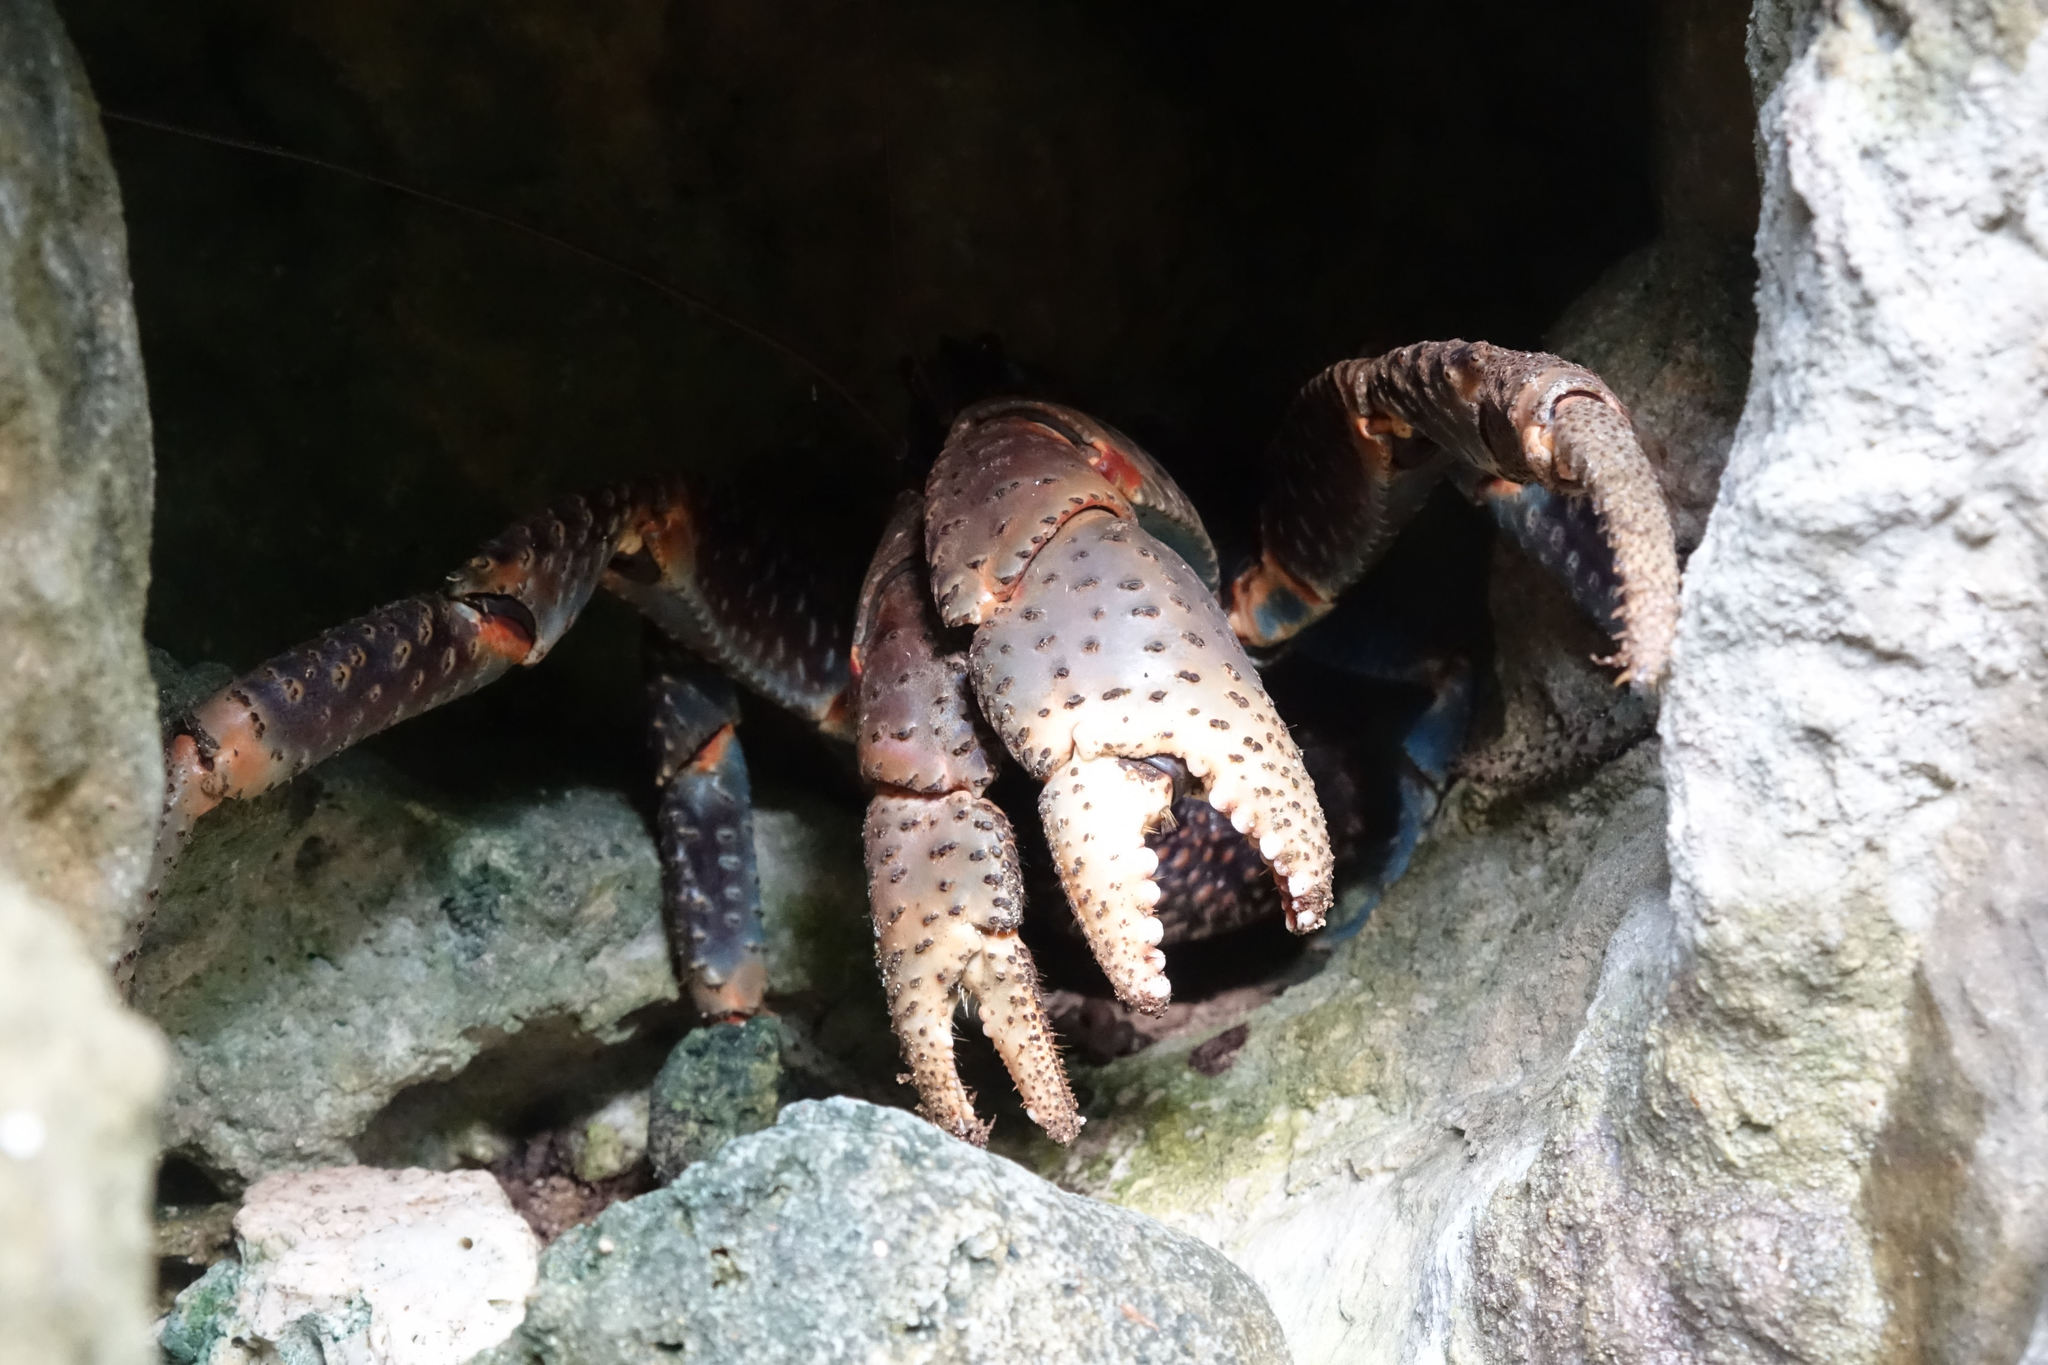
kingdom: Animalia
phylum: Arthropoda
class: Malacostraca
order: Decapoda
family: Coenobitidae
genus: Birgus
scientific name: Birgus latro
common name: Coconut crab
